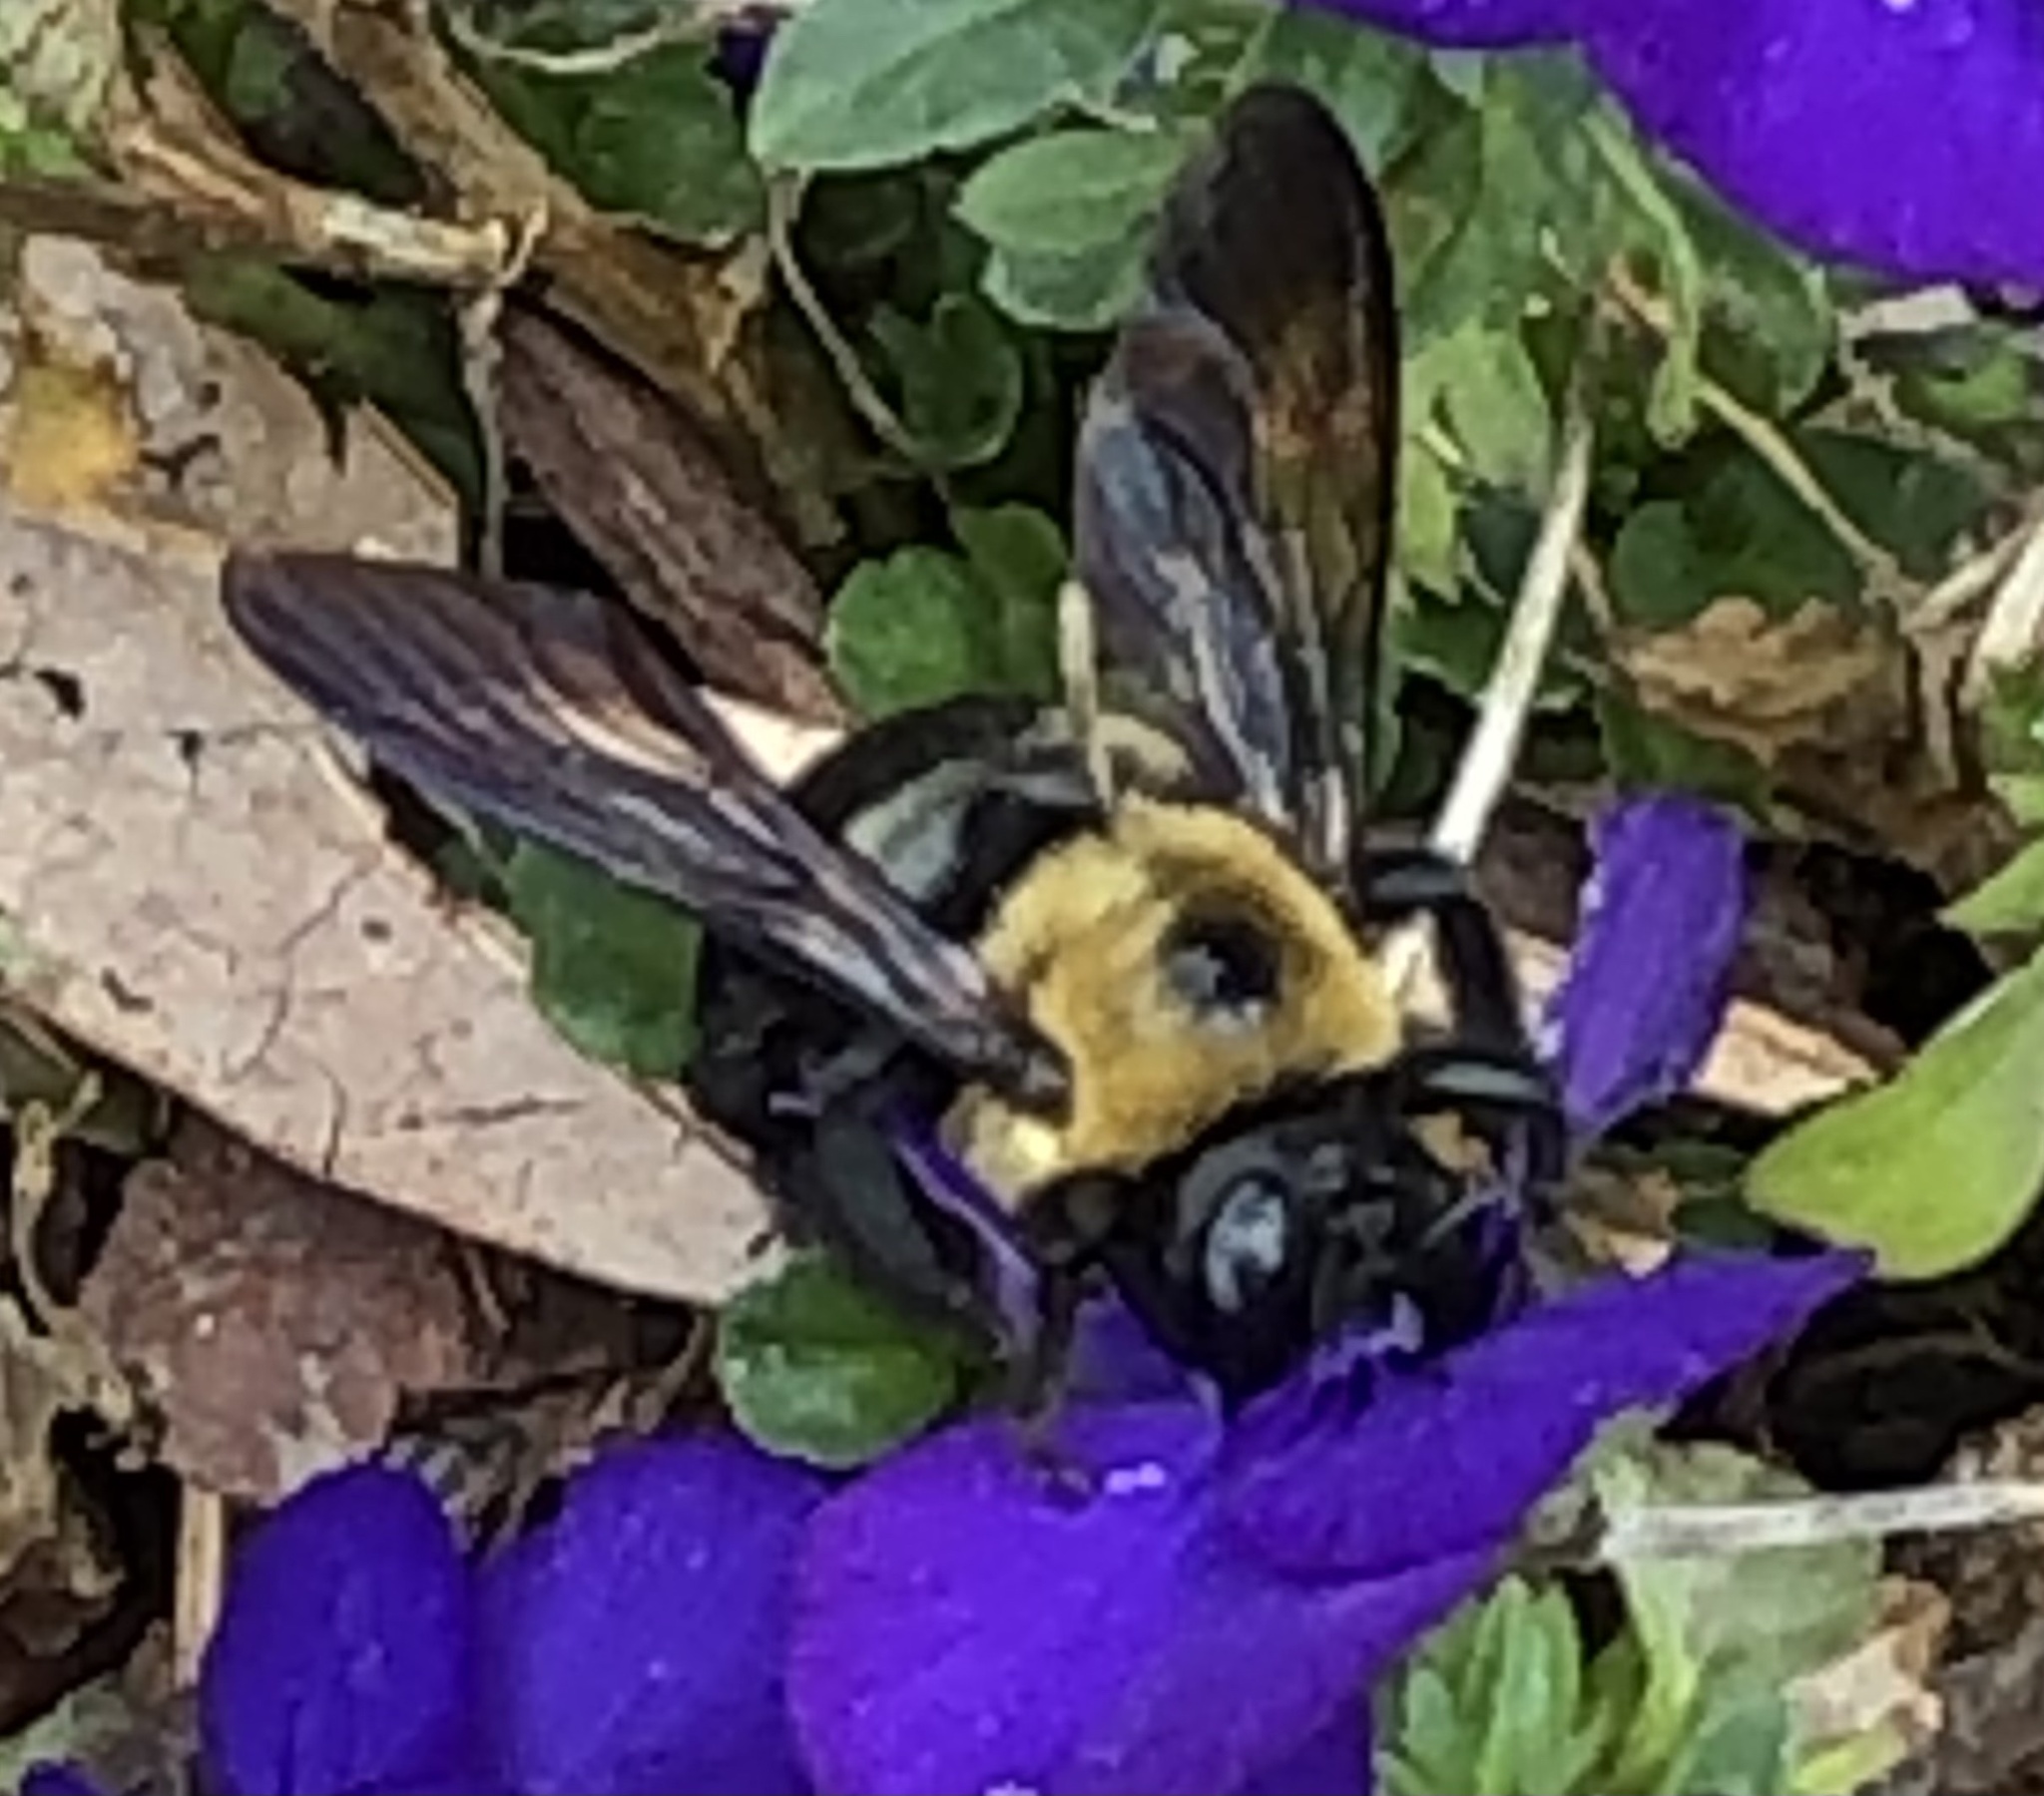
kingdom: Animalia
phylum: Arthropoda
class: Insecta
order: Hymenoptera
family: Apidae
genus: Xylocopa
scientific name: Xylocopa virginica
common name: Carpenter bee
